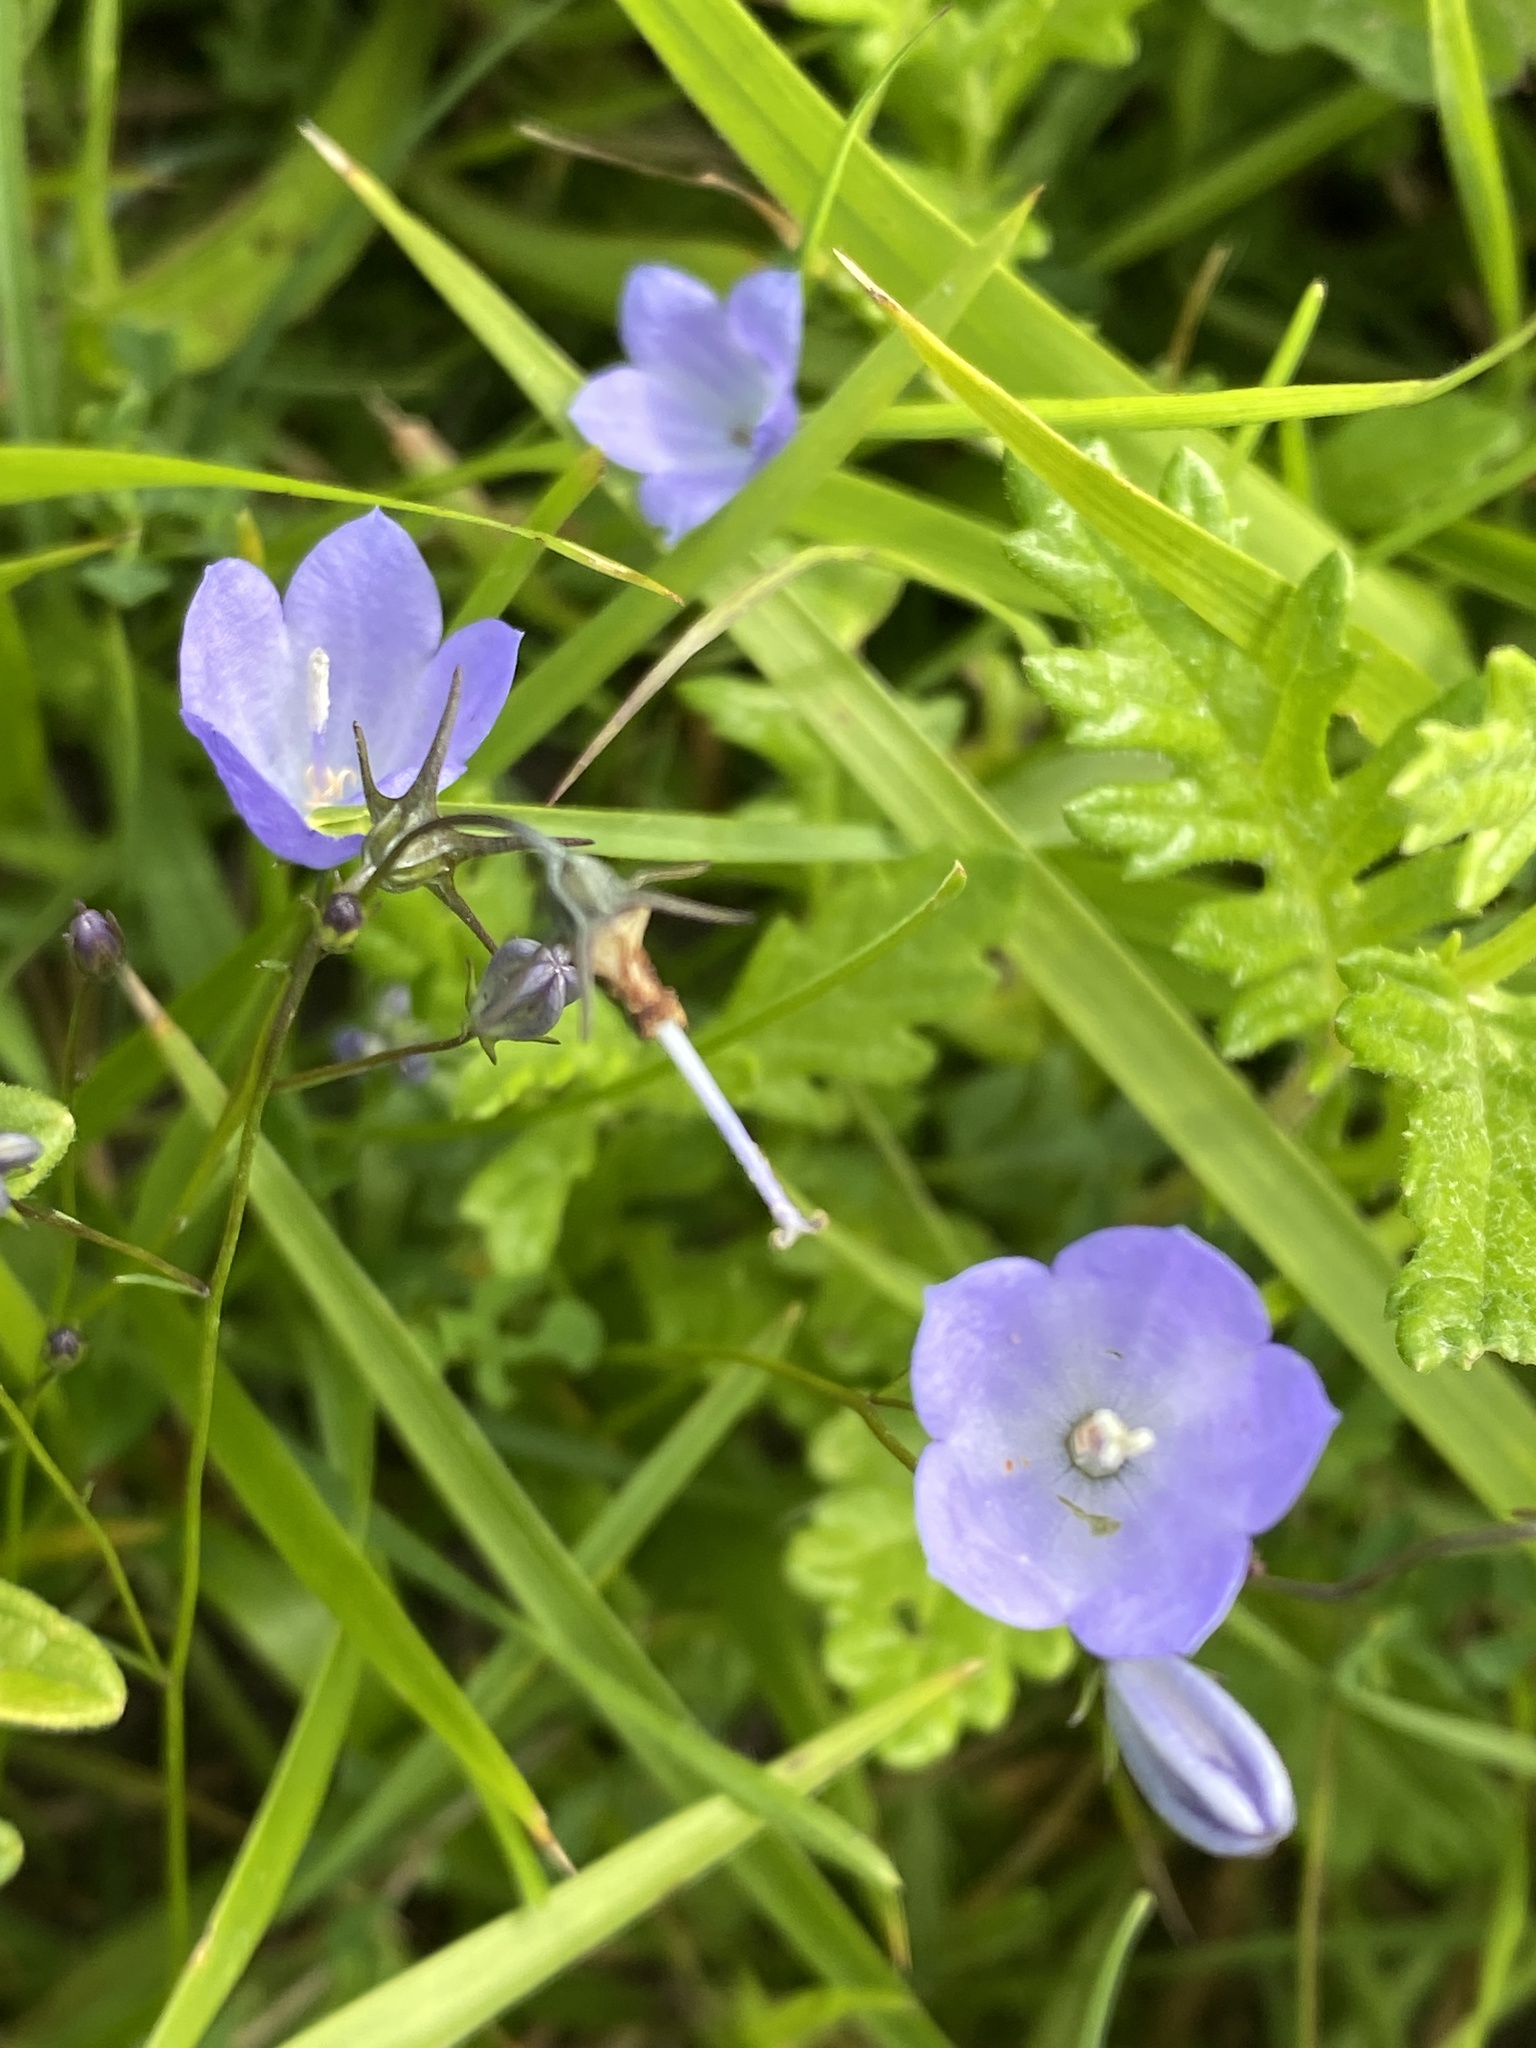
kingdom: Plantae
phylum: Tracheophyta
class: Magnoliopsida
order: Asterales
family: Campanulaceae
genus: Campanula
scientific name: Campanula rotundifolia
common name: Harebell
